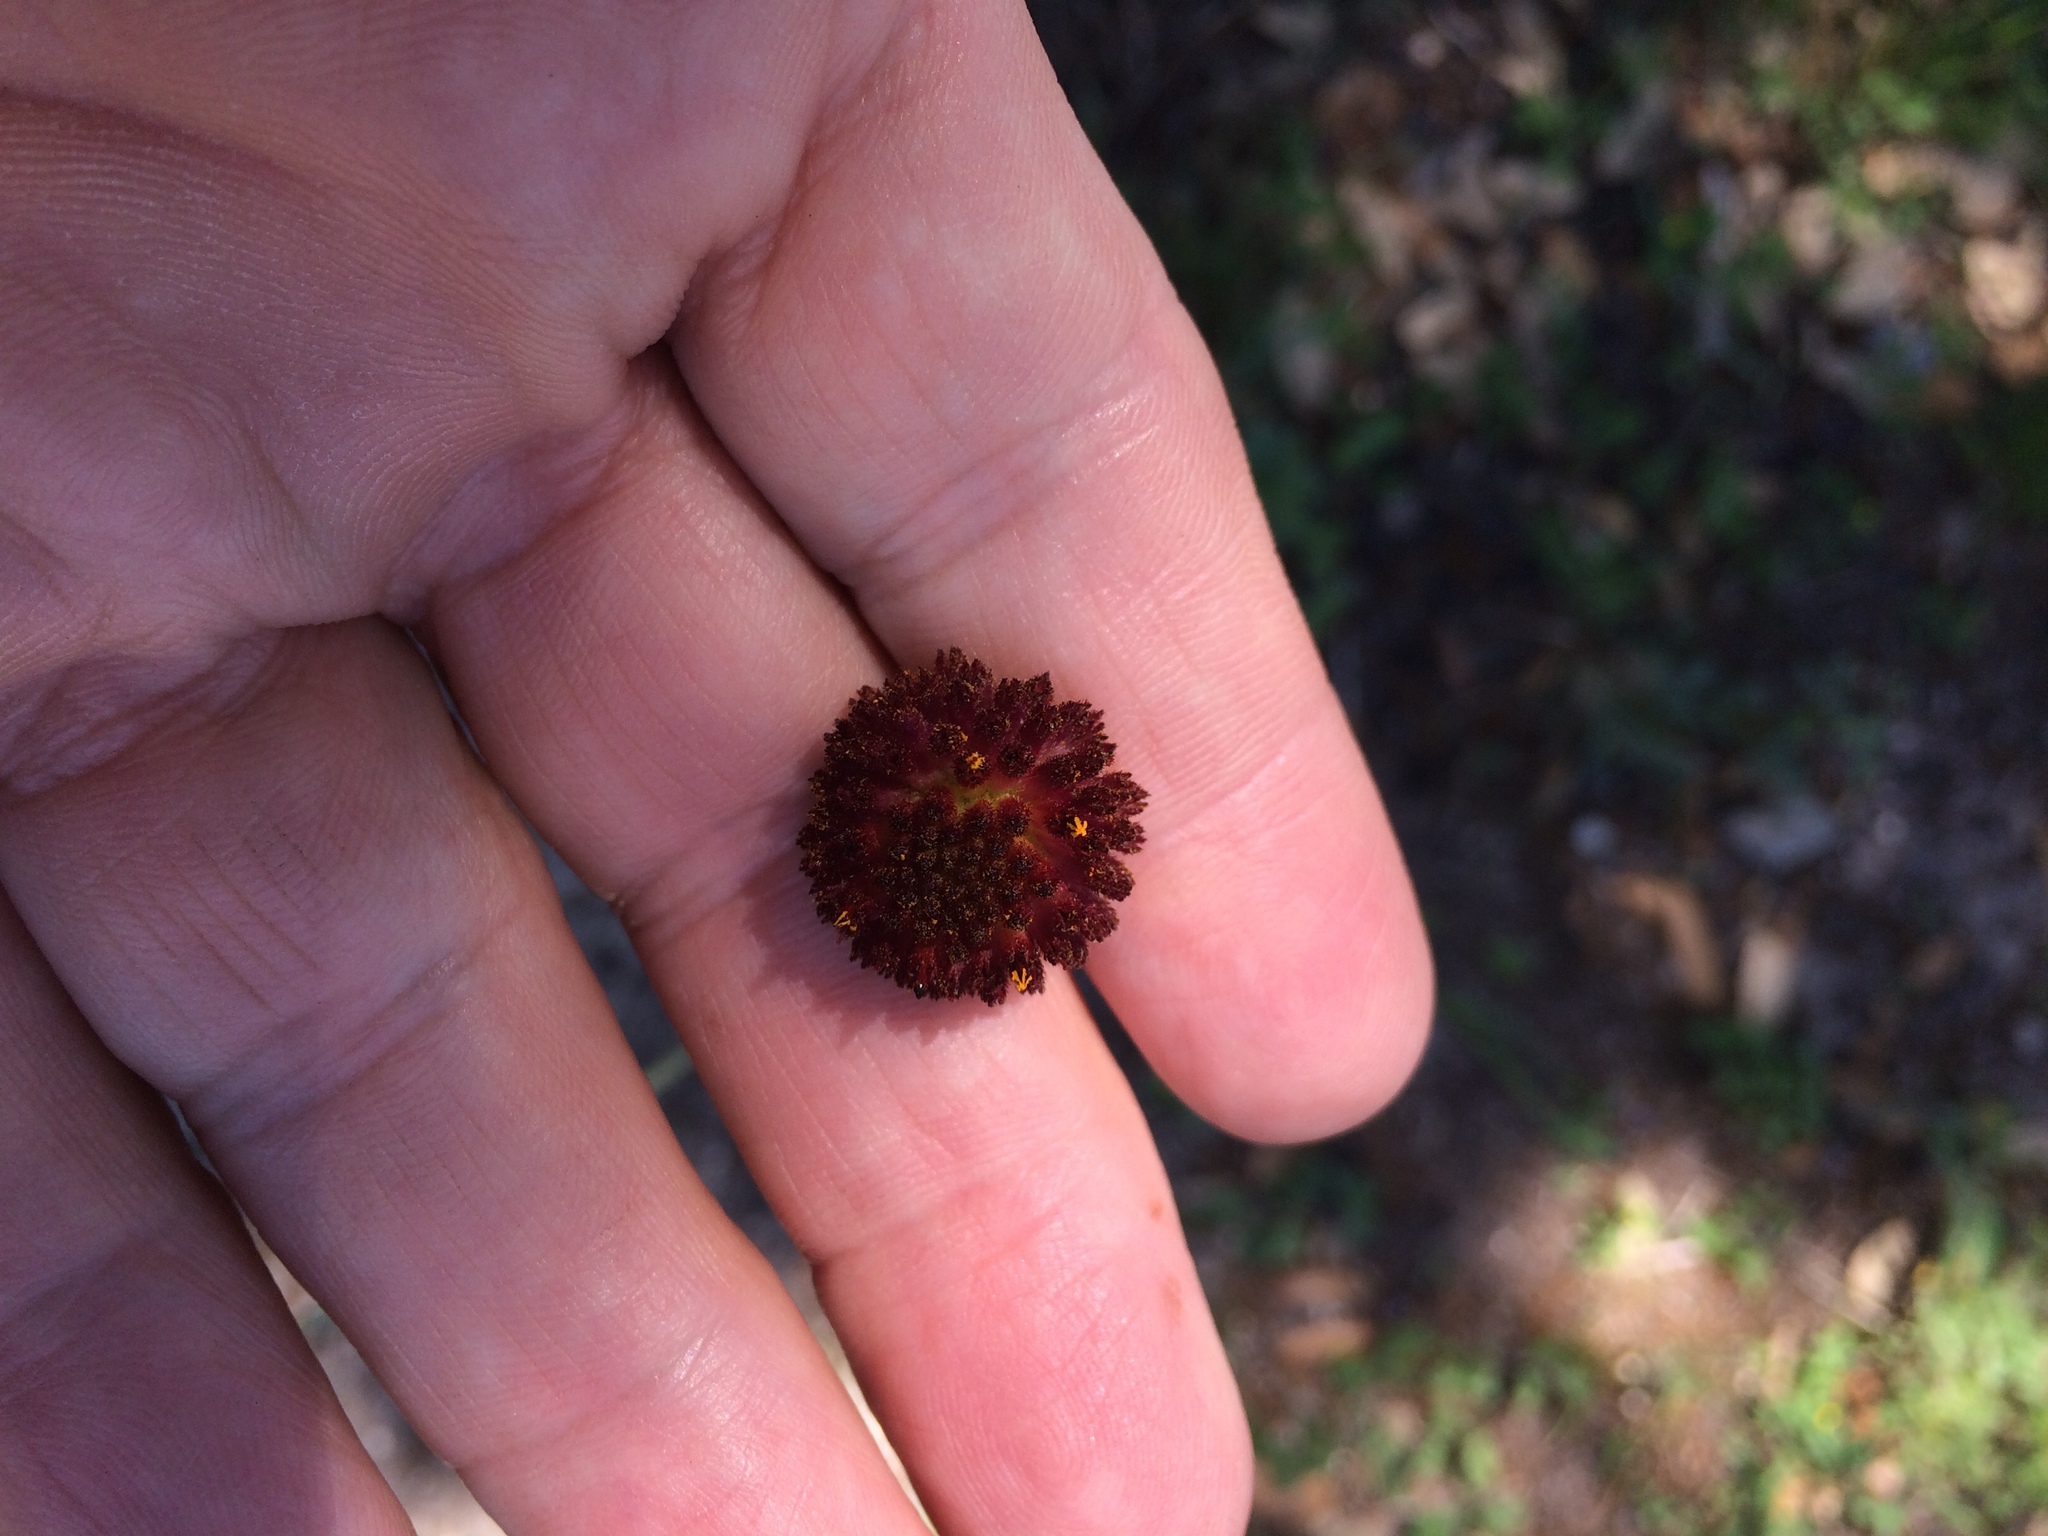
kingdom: Plantae
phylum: Tracheophyta
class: Magnoliopsida
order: Asterales
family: Asteraceae
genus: Gaillardia
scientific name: Gaillardia suavis
